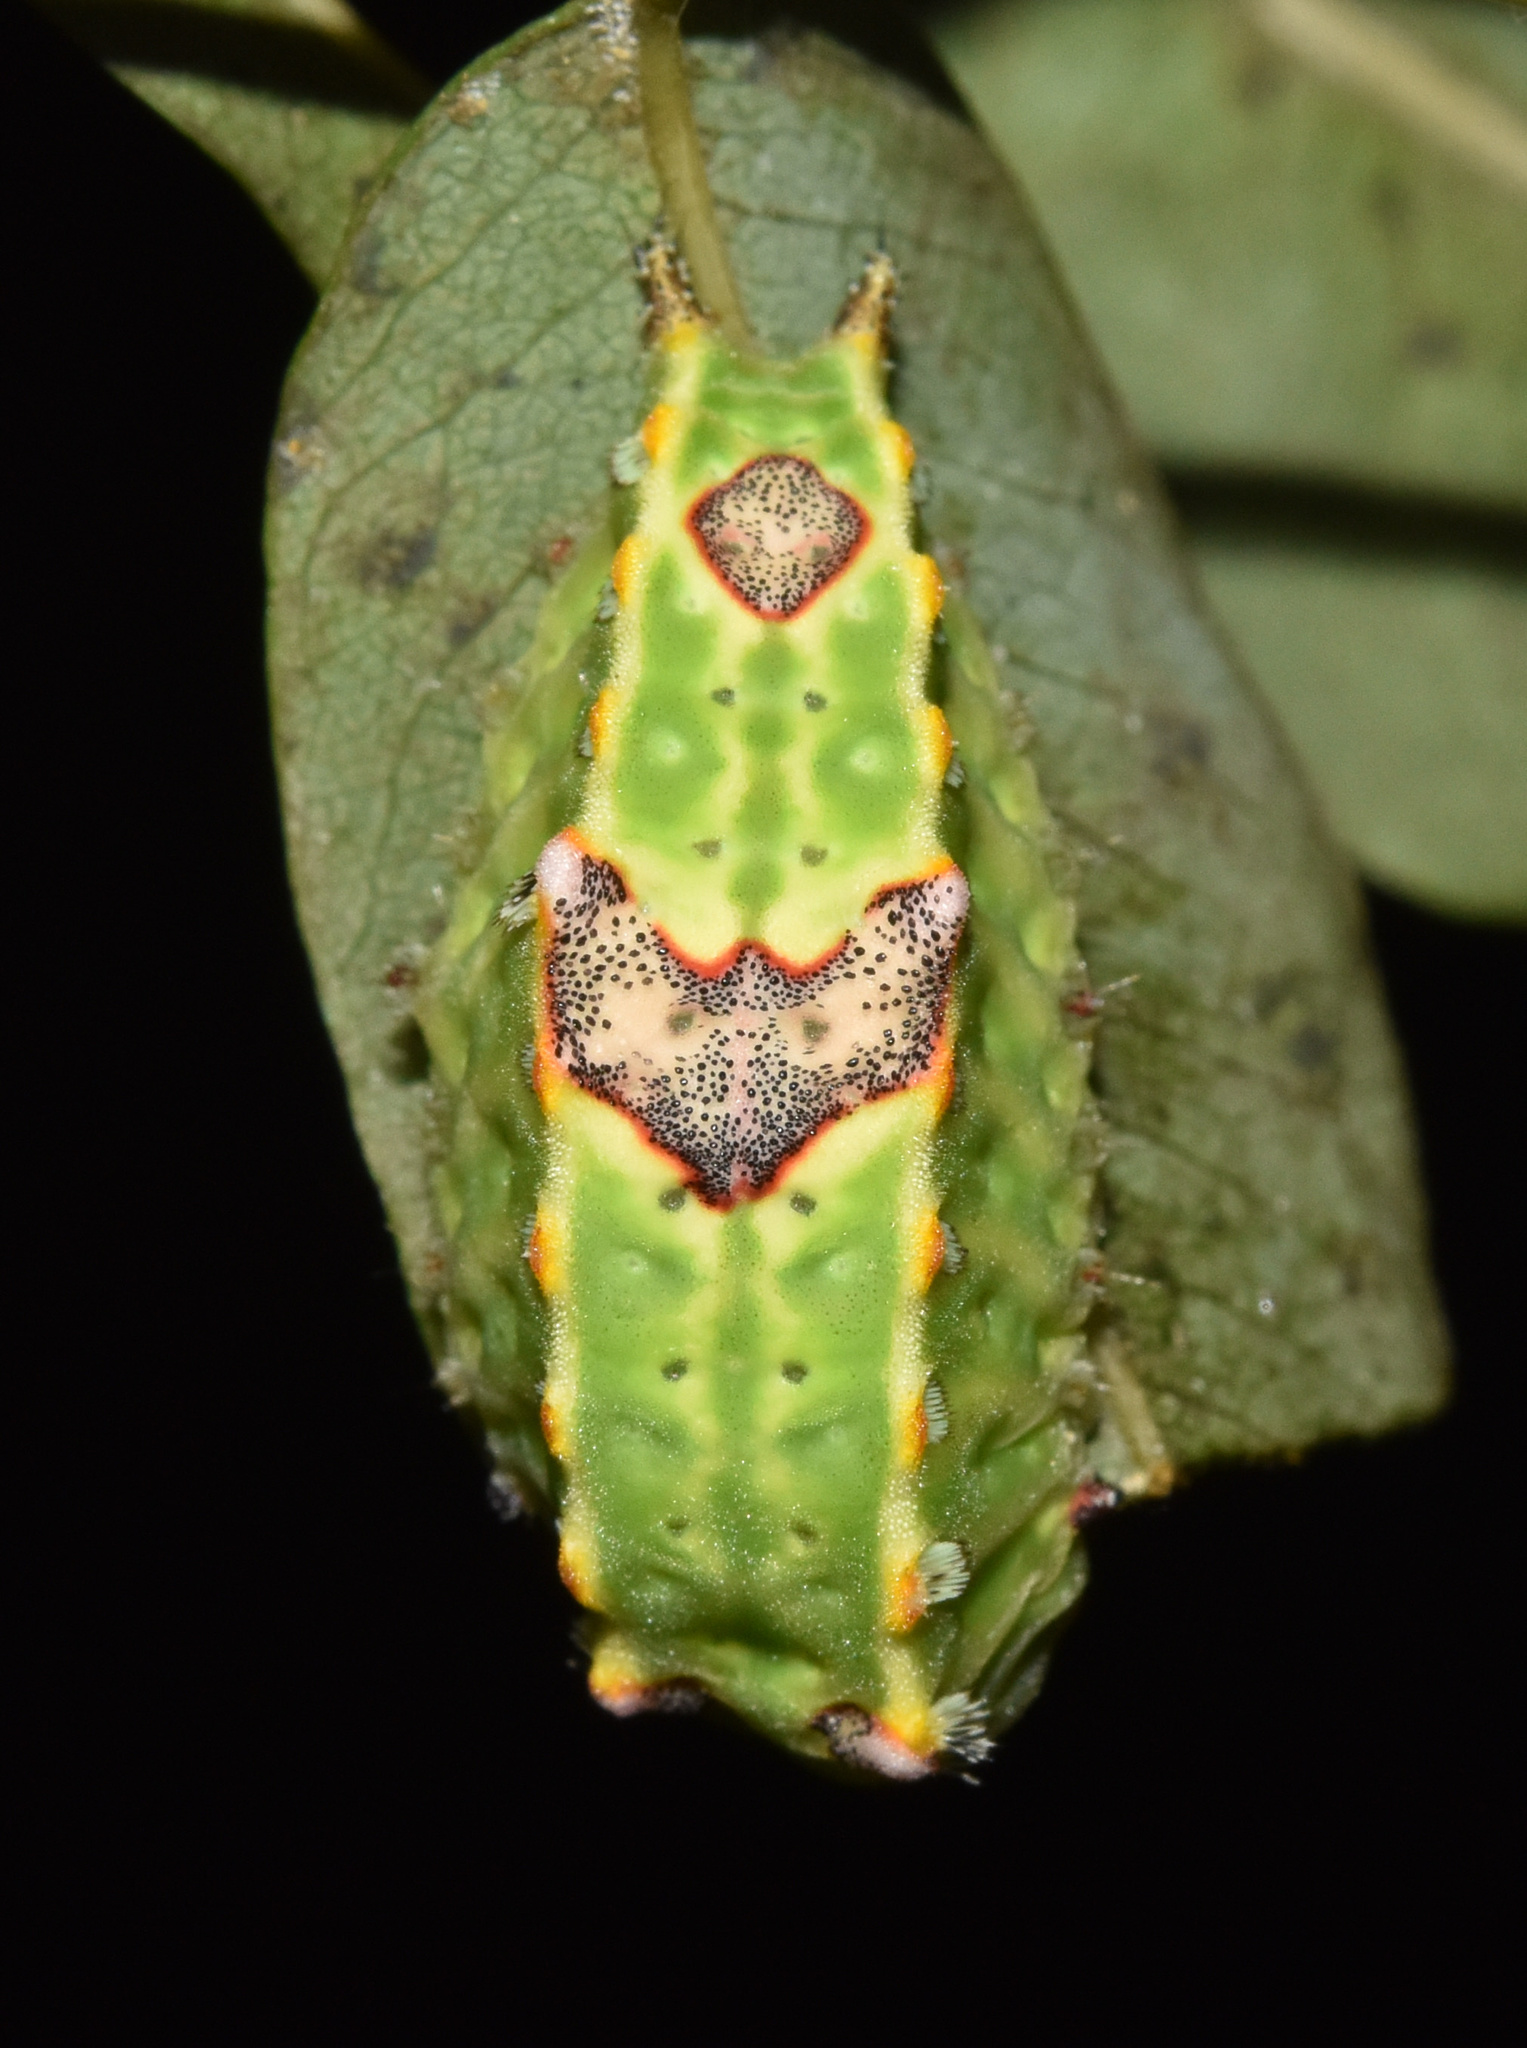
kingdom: Animalia
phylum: Arthropoda
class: Insecta
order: Lepidoptera
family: Limacodidae
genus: Micraphe
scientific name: Micraphe lateritia
